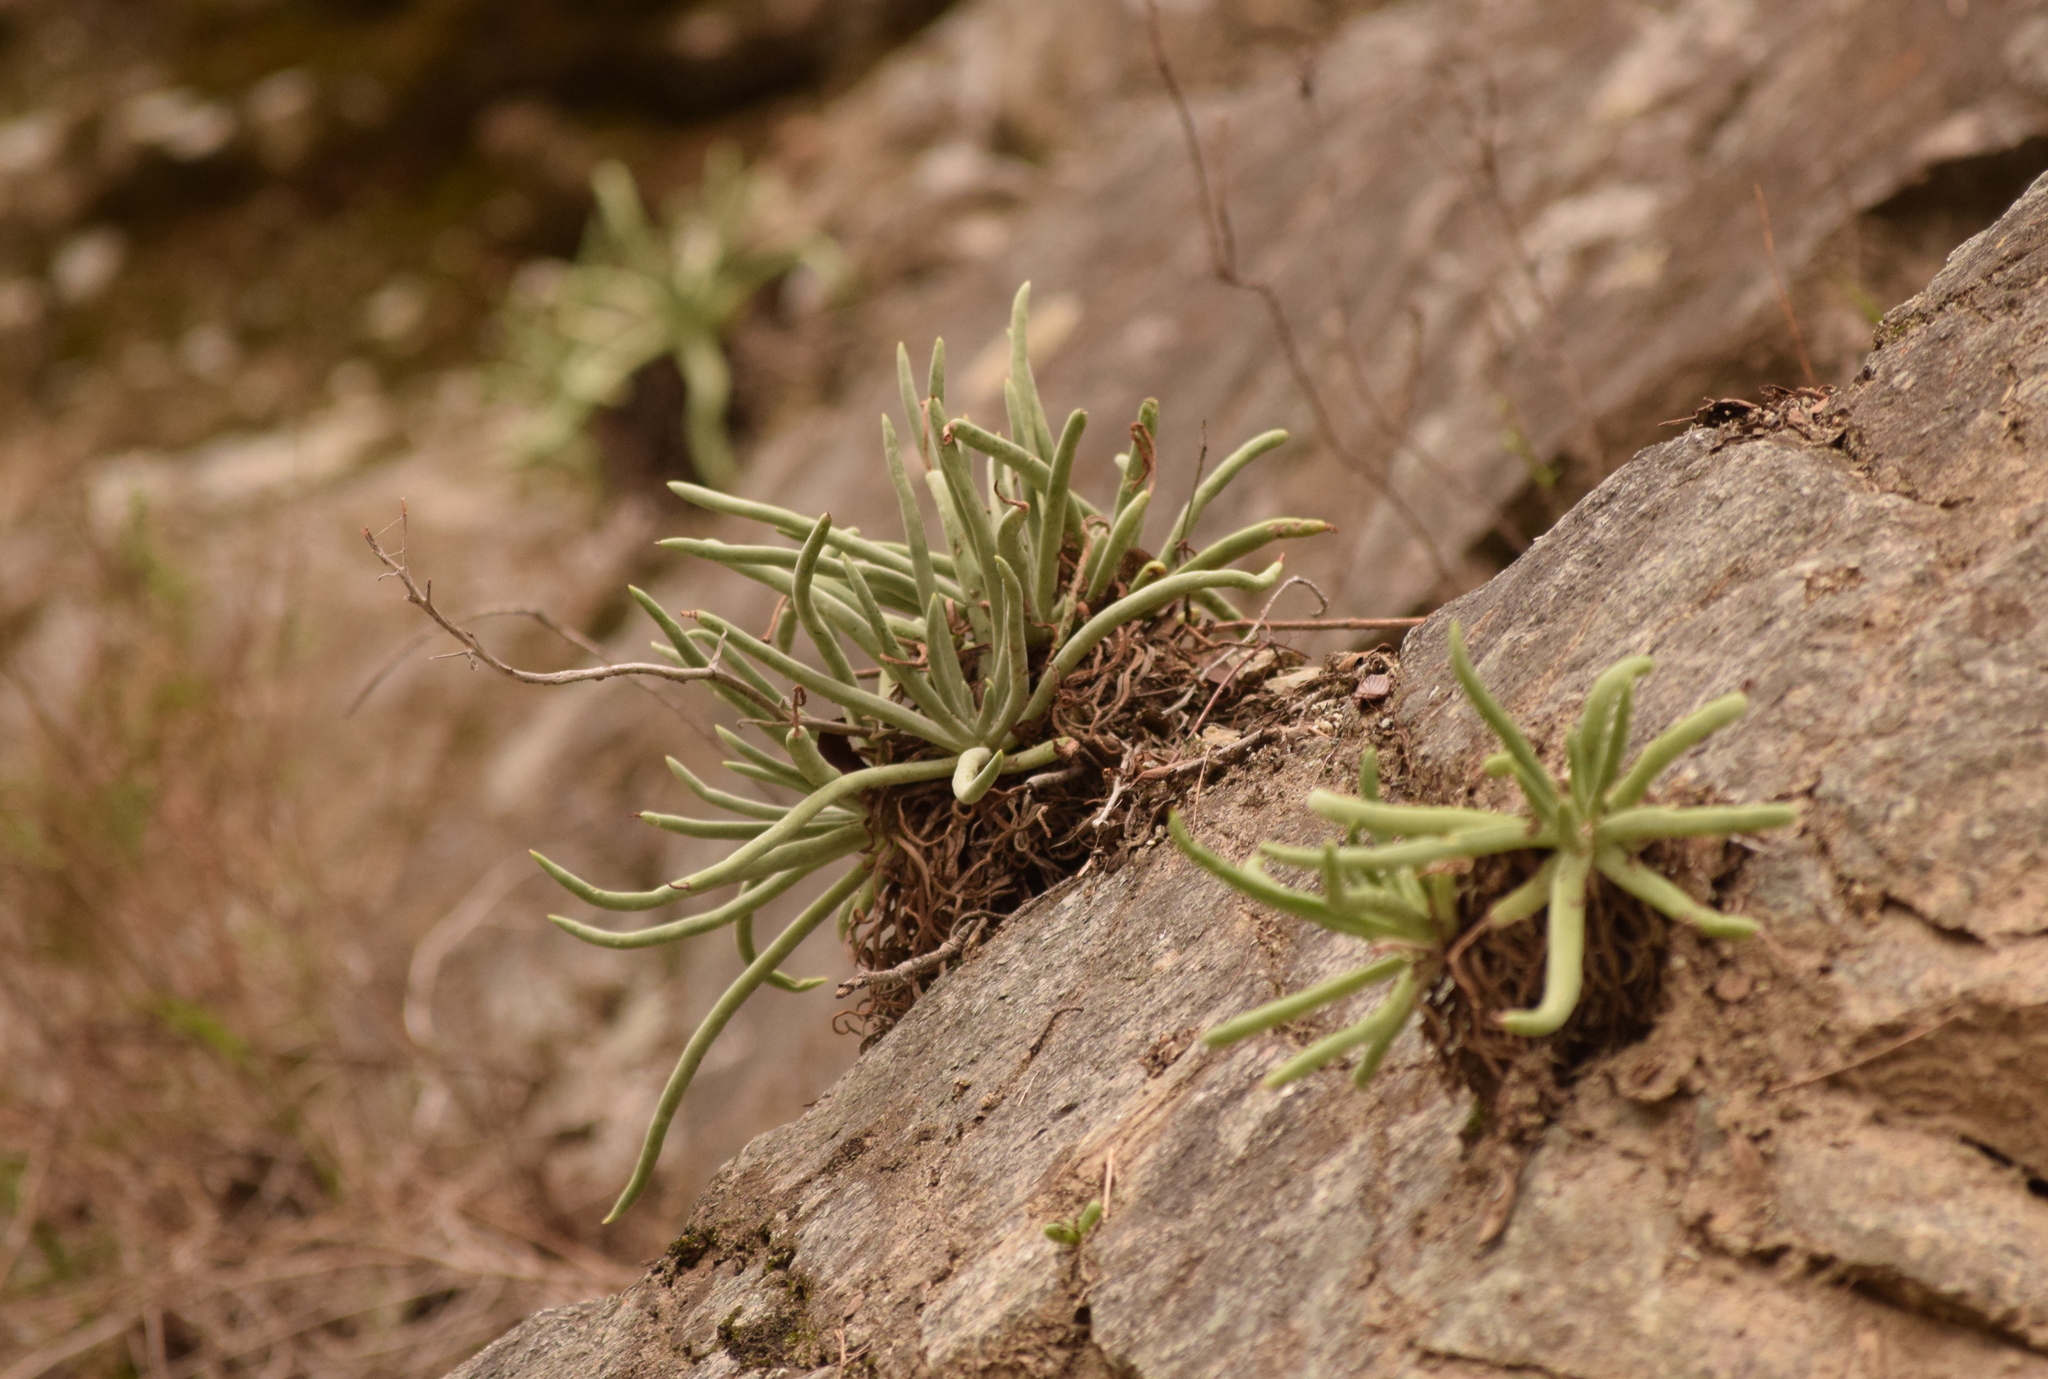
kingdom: Plantae
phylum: Tracheophyta
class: Magnoliopsida
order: Saxifragales
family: Crassulaceae
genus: Dudleya
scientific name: Dudleya densiflora
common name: San gabriel mountains dudleya
